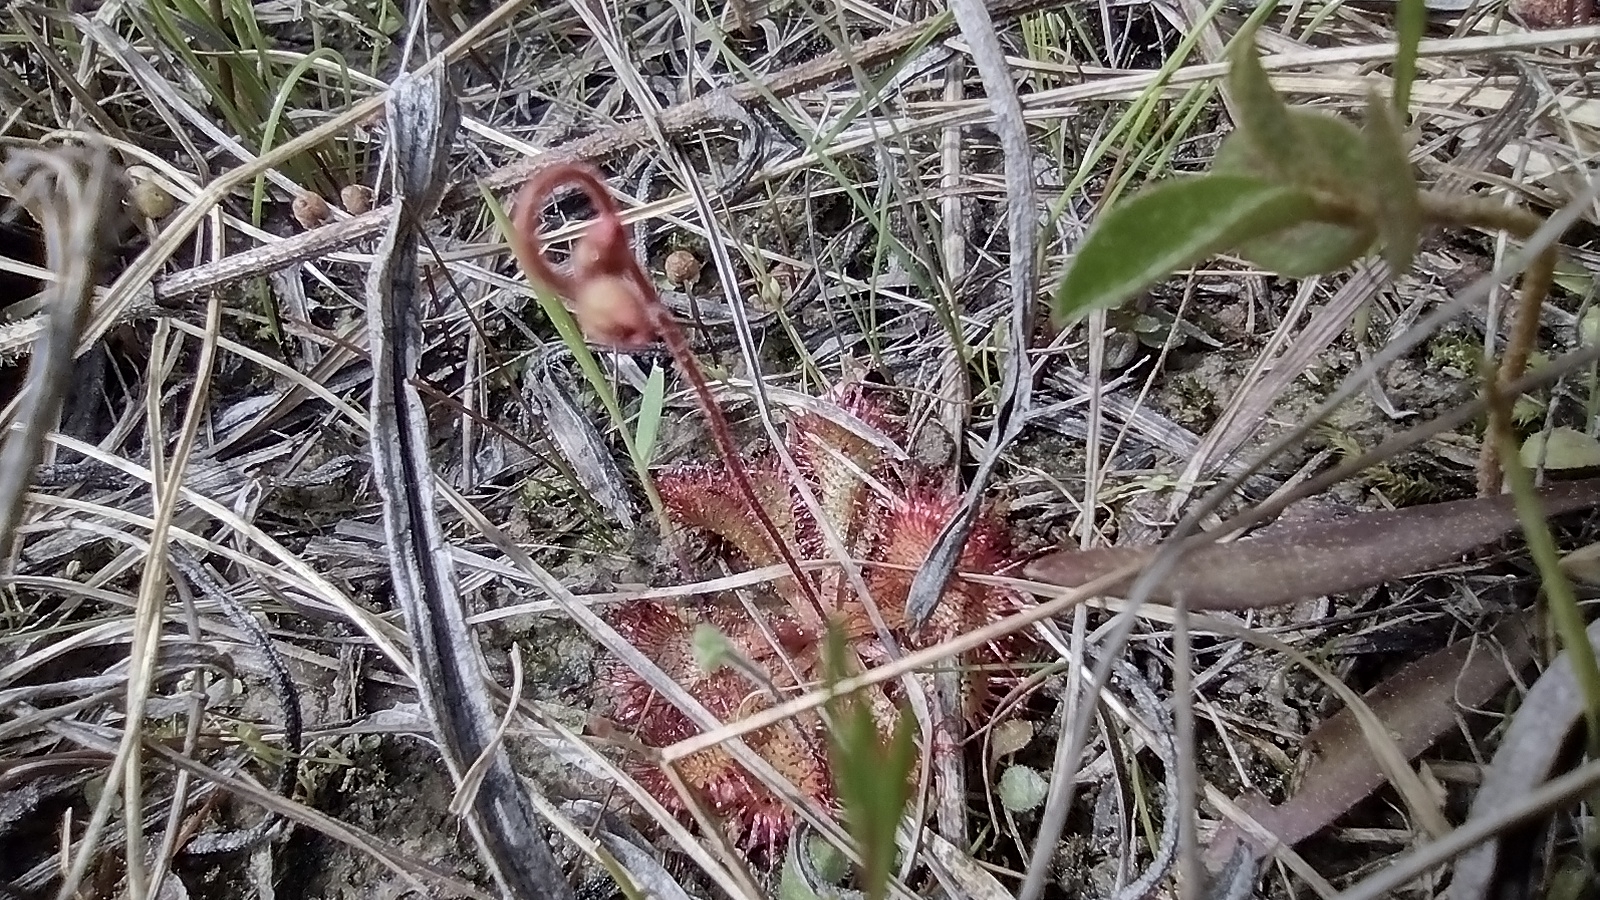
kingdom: Plantae
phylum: Tracheophyta
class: Magnoliopsida
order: Caryophyllales
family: Droseraceae
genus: Drosera
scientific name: Drosera brevifolia
